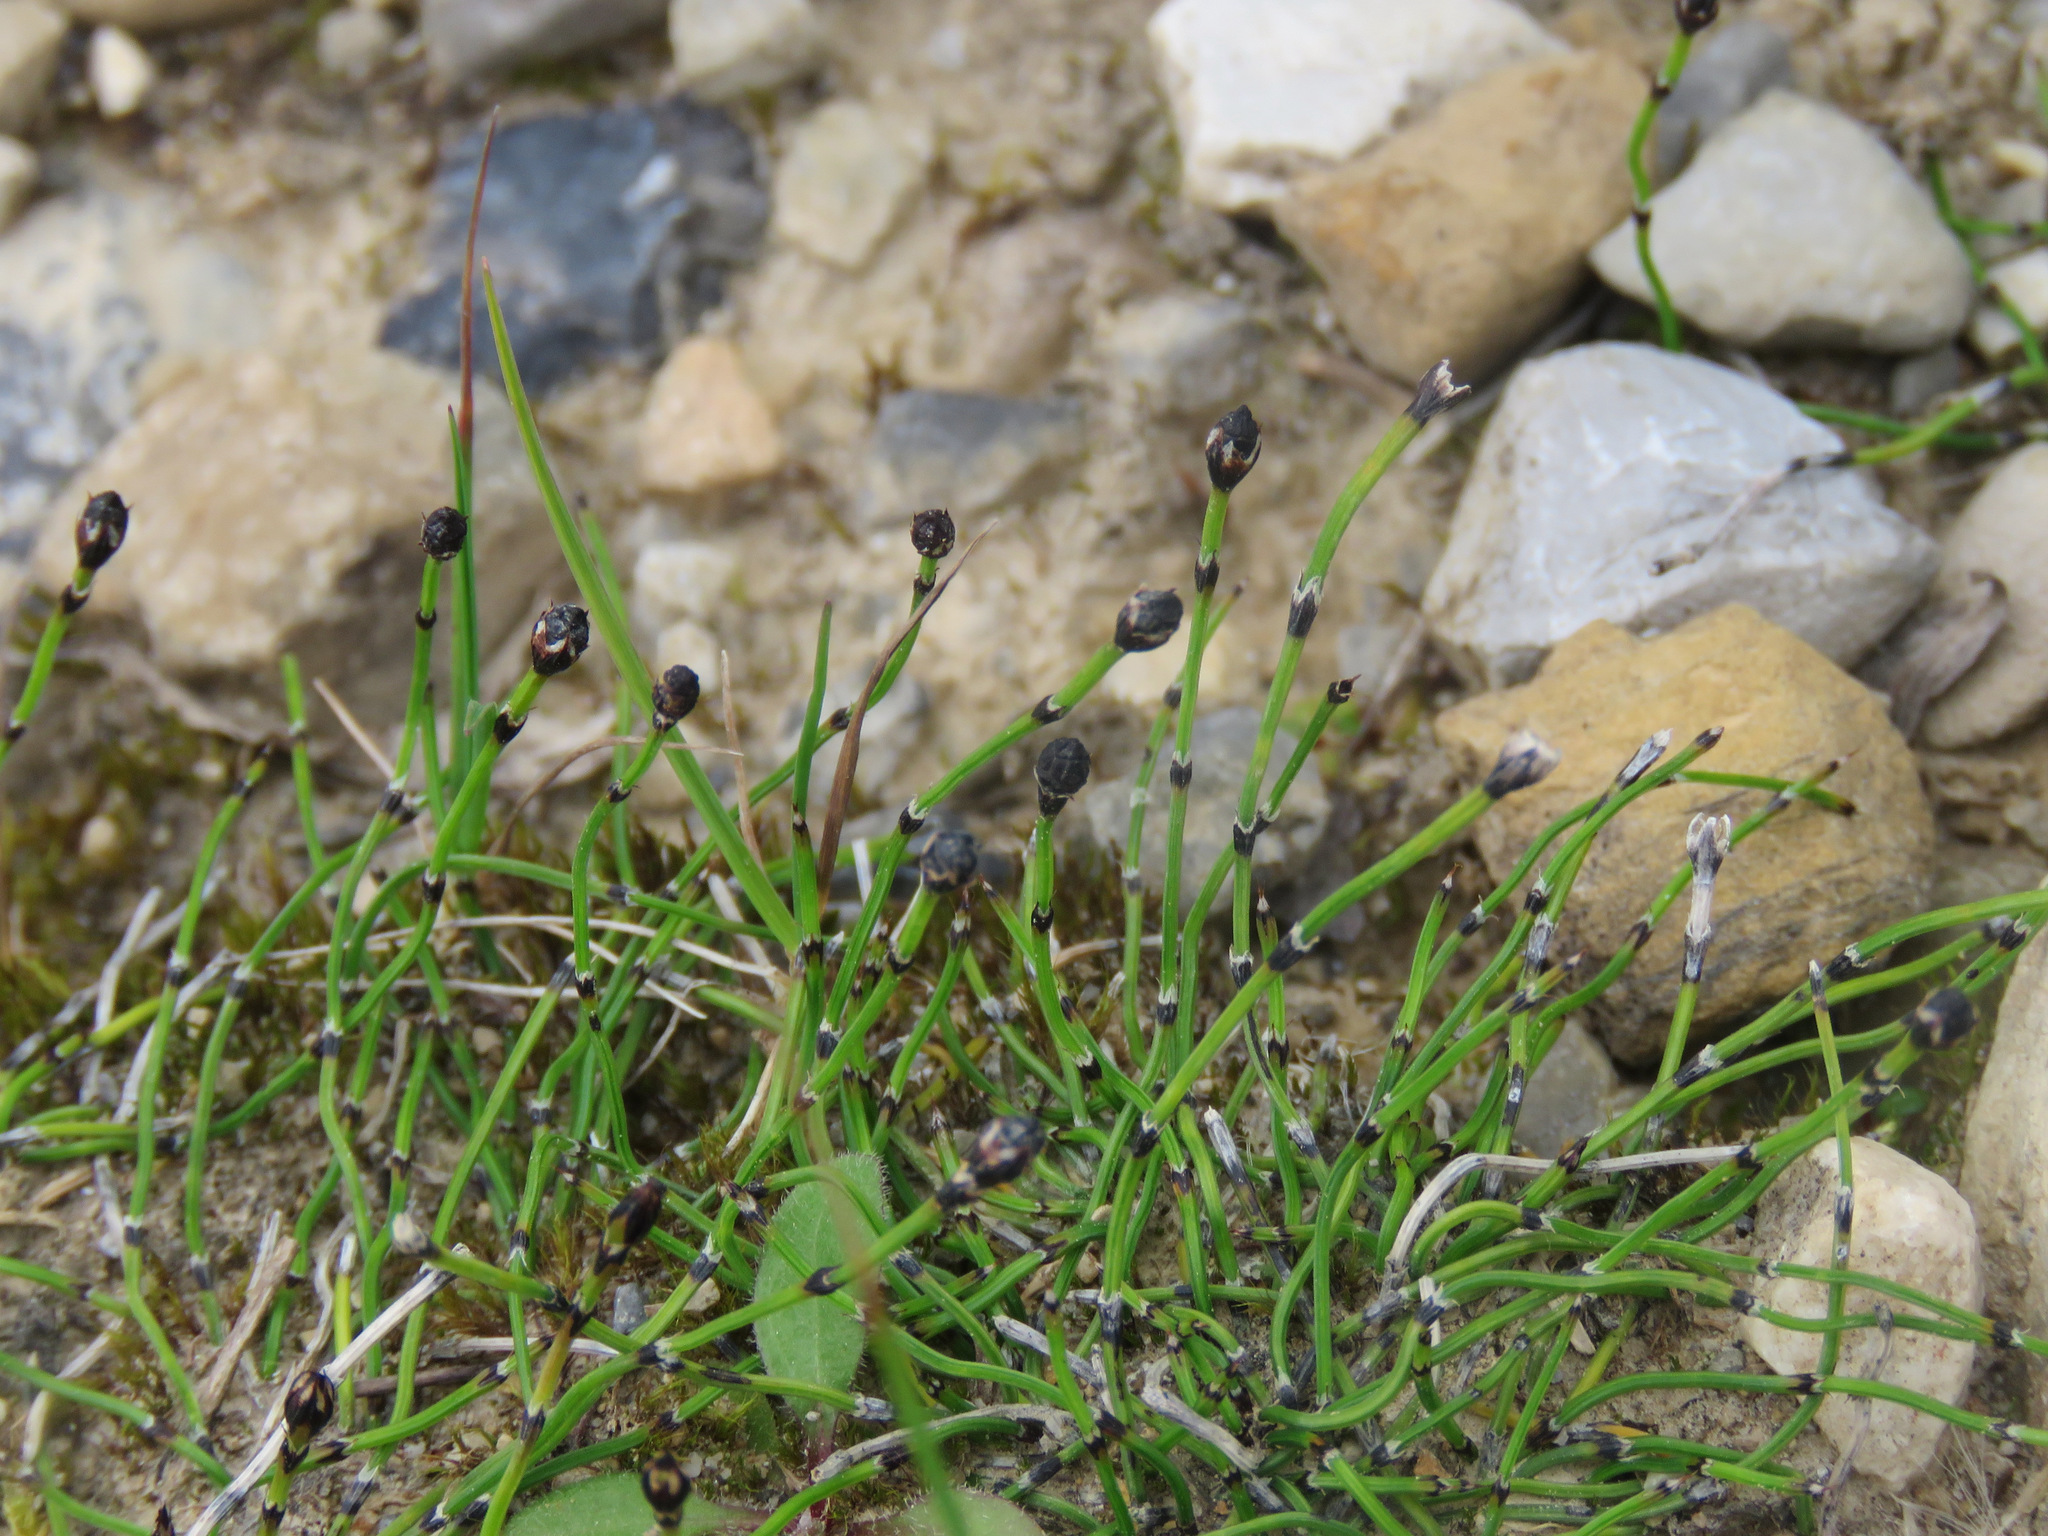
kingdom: Plantae
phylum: Tracheophyta
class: Polypodiopsida
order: Equisetales
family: Equisetaceae
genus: Equisetum
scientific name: Equisetum scirpoides
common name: Delicate horsetail
